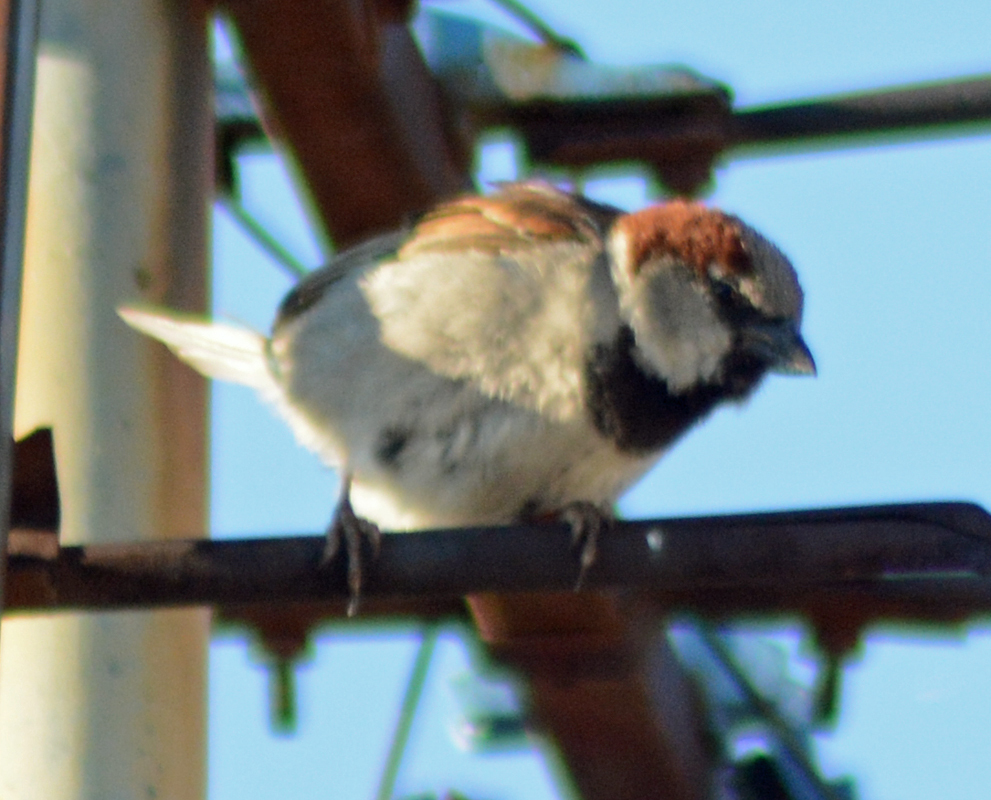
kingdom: Animalia
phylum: Chordata
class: Aves
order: Passeriformes
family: Passeridae
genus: Passer
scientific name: Passer domesticus
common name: House sparrow
